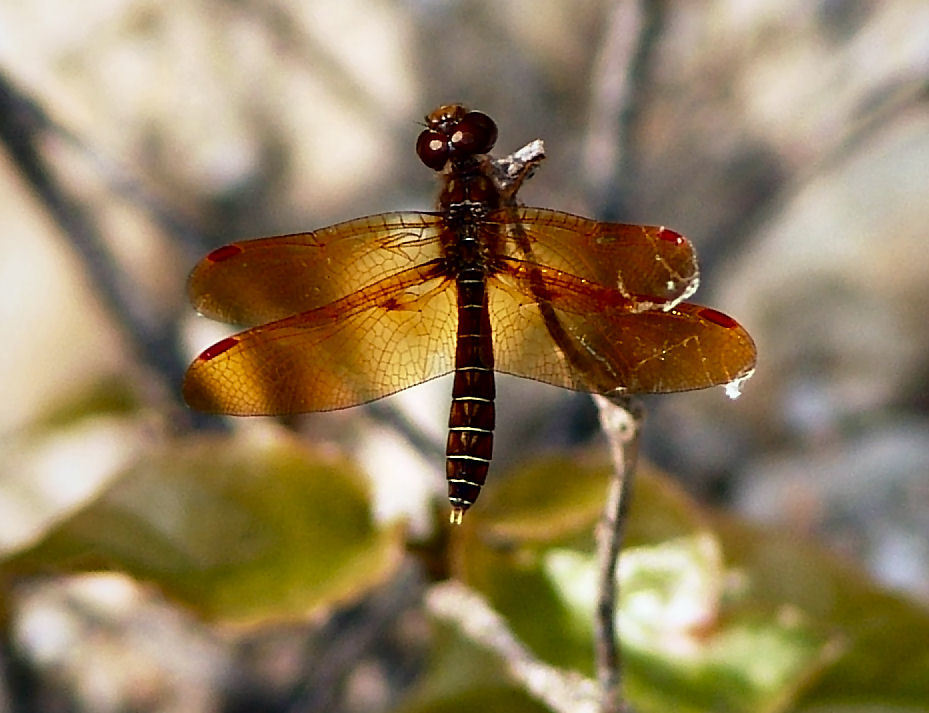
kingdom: Animalia
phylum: Arthropoda
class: Insecta
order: Odonata
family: Libellulidae
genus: Perithemis
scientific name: Perithemis tenera
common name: Eastern amberwing
